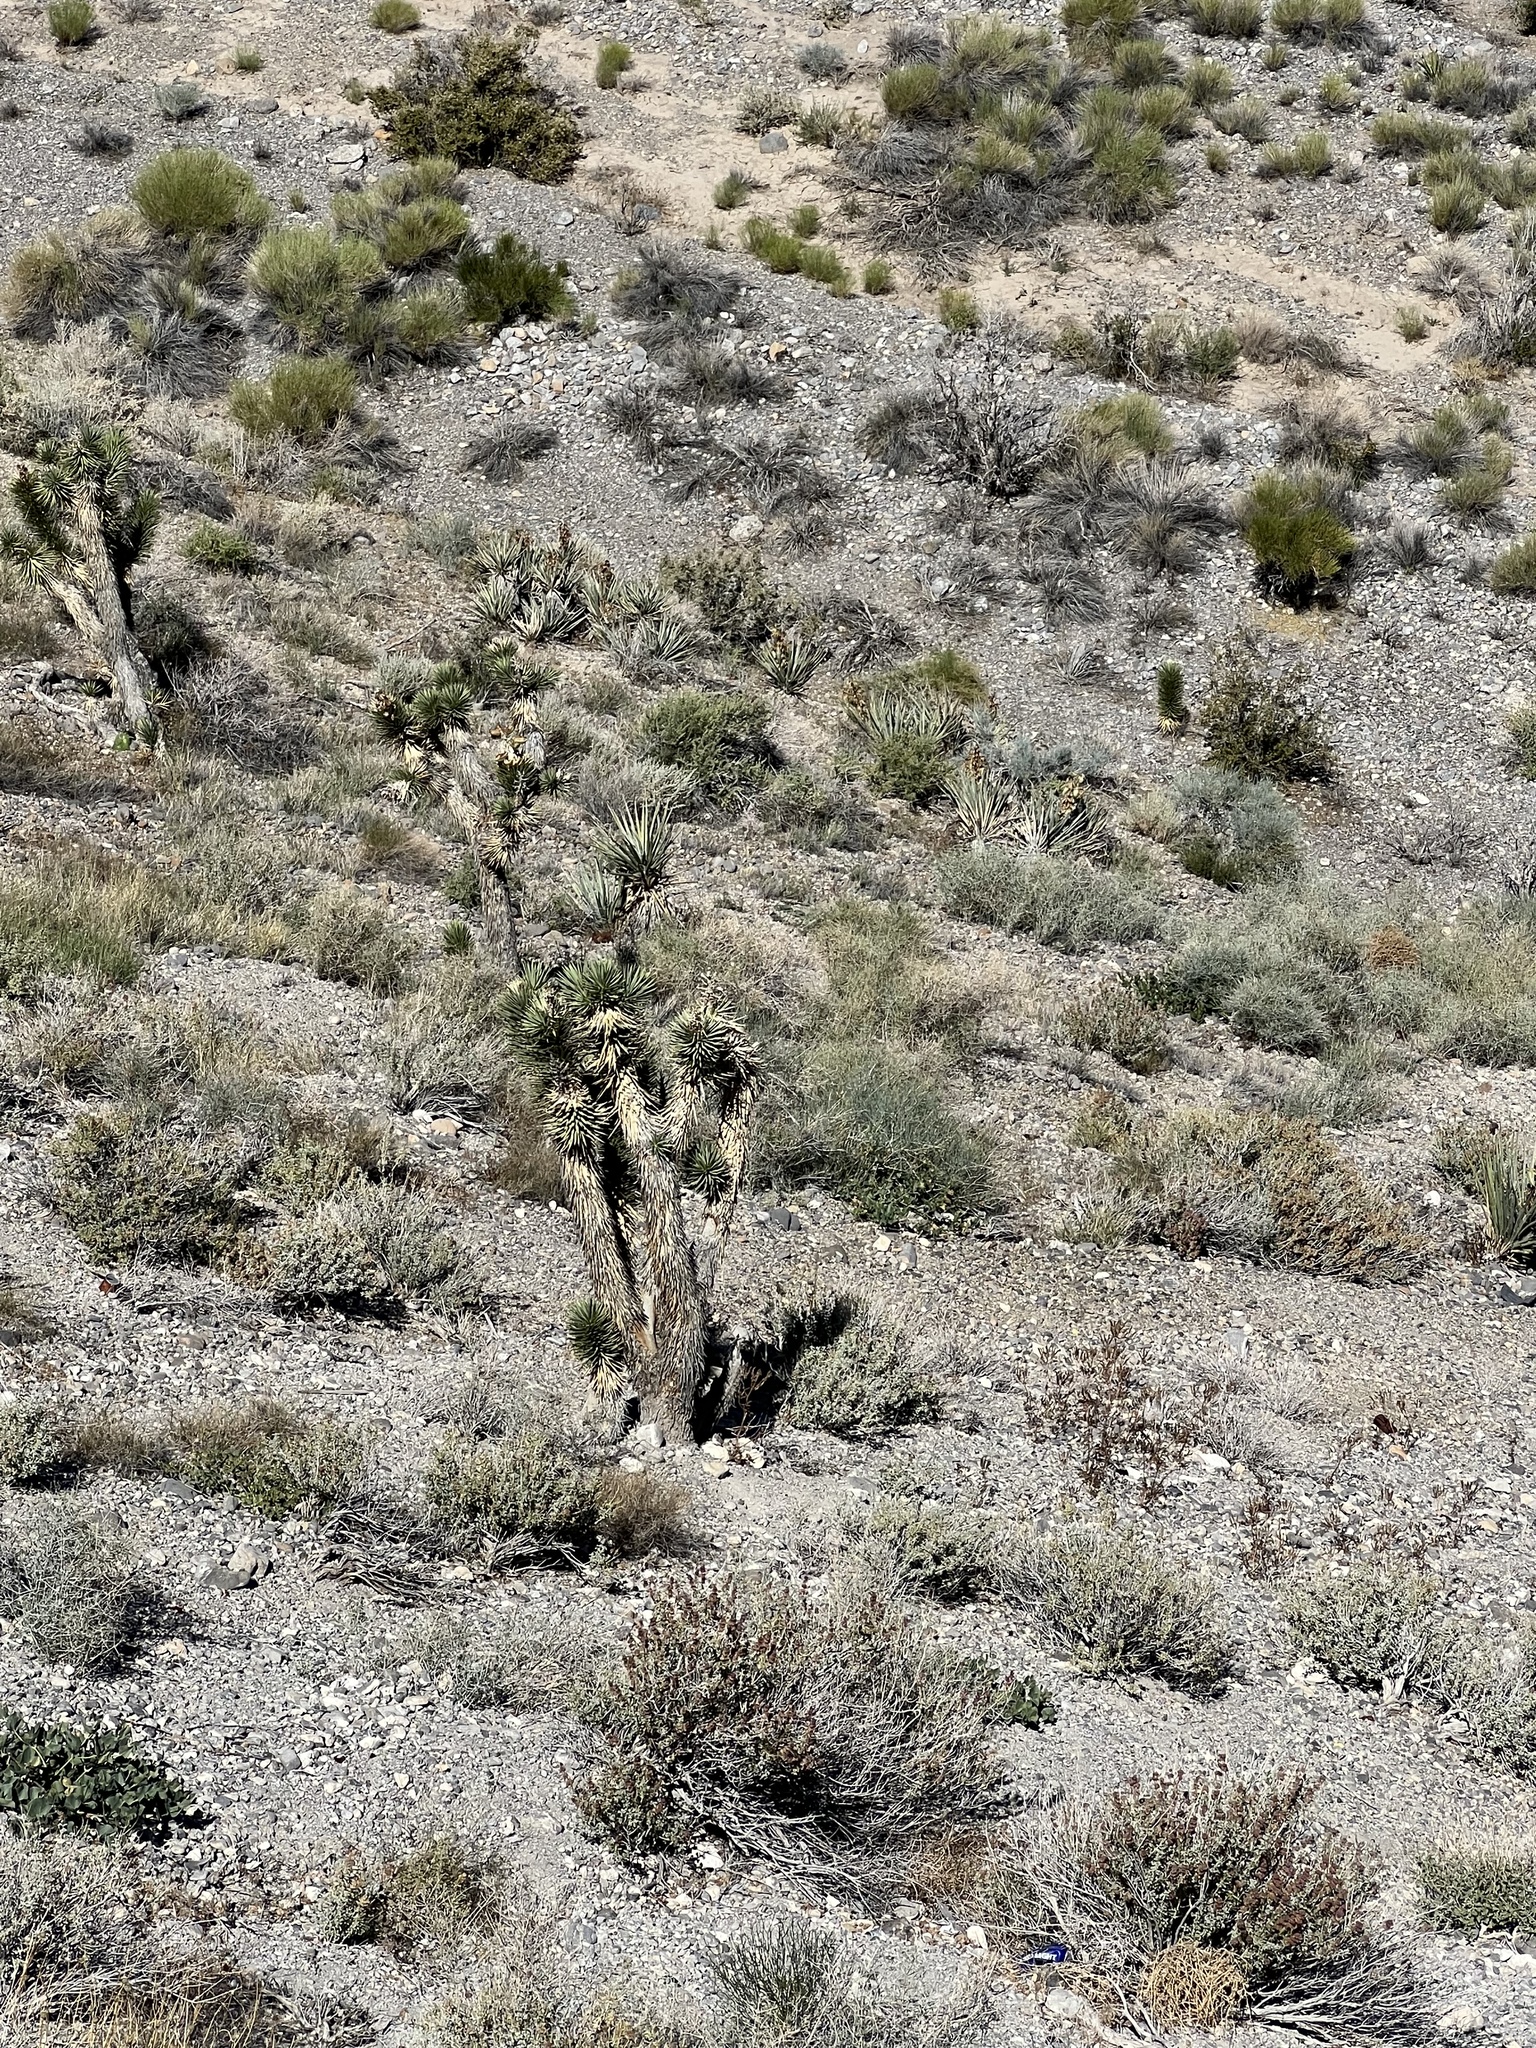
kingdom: Plantae
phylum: Tracheophyta
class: Liliopsida
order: Asparagales
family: Asparagaceae
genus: Yucca
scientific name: Yucca brevifolia
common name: Joshua tree
